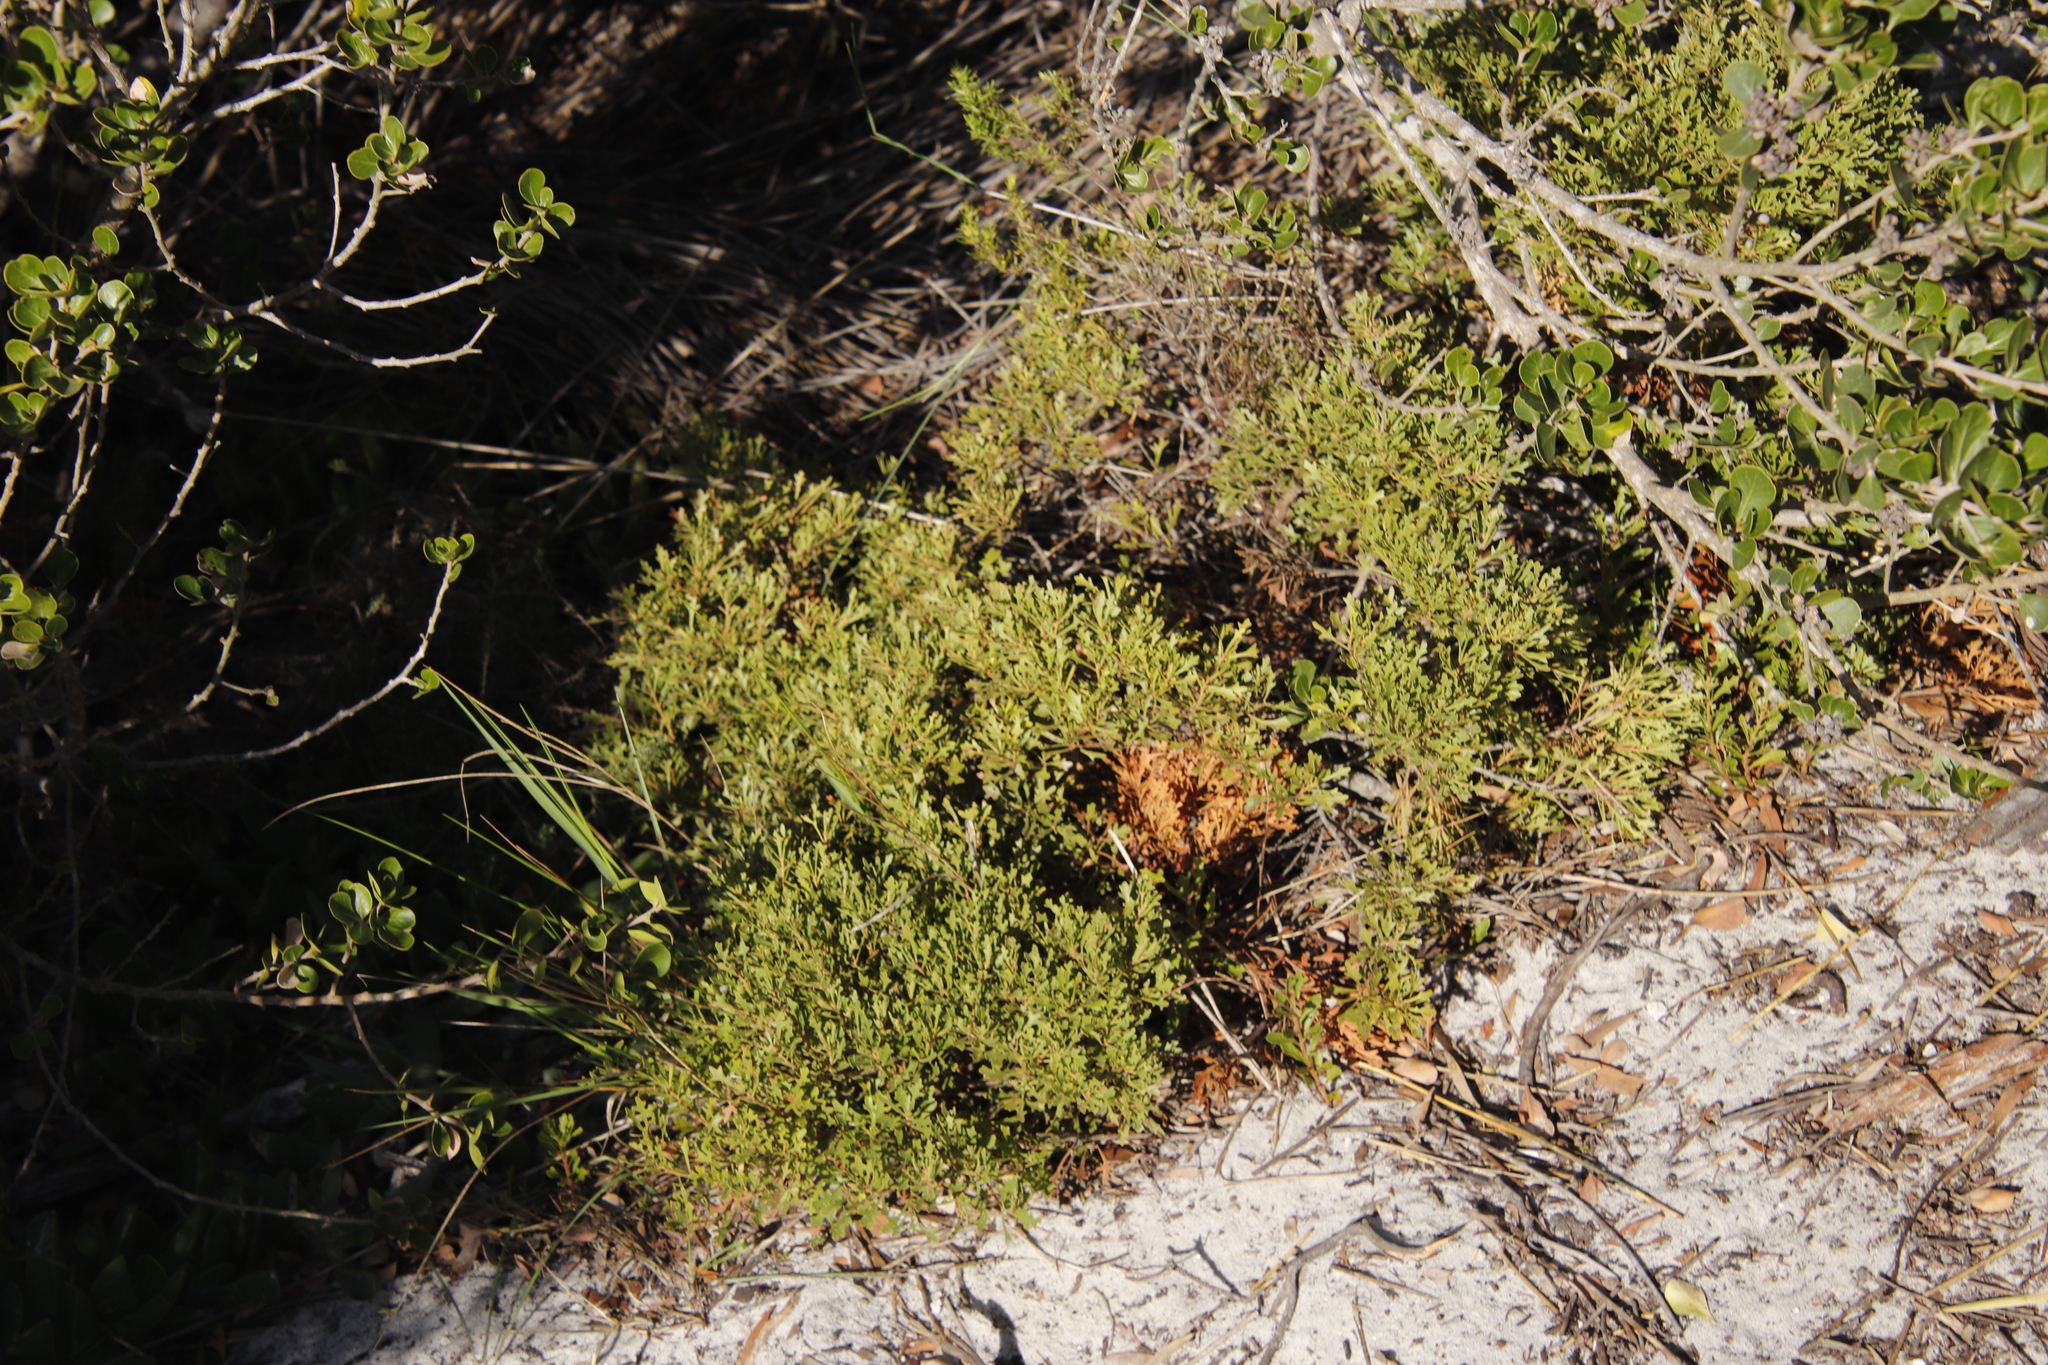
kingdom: Plantae
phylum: Tracheophyta
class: Magnoliopsida
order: Fagales
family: Myricaceae
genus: Morella
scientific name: Morella quercifolia
